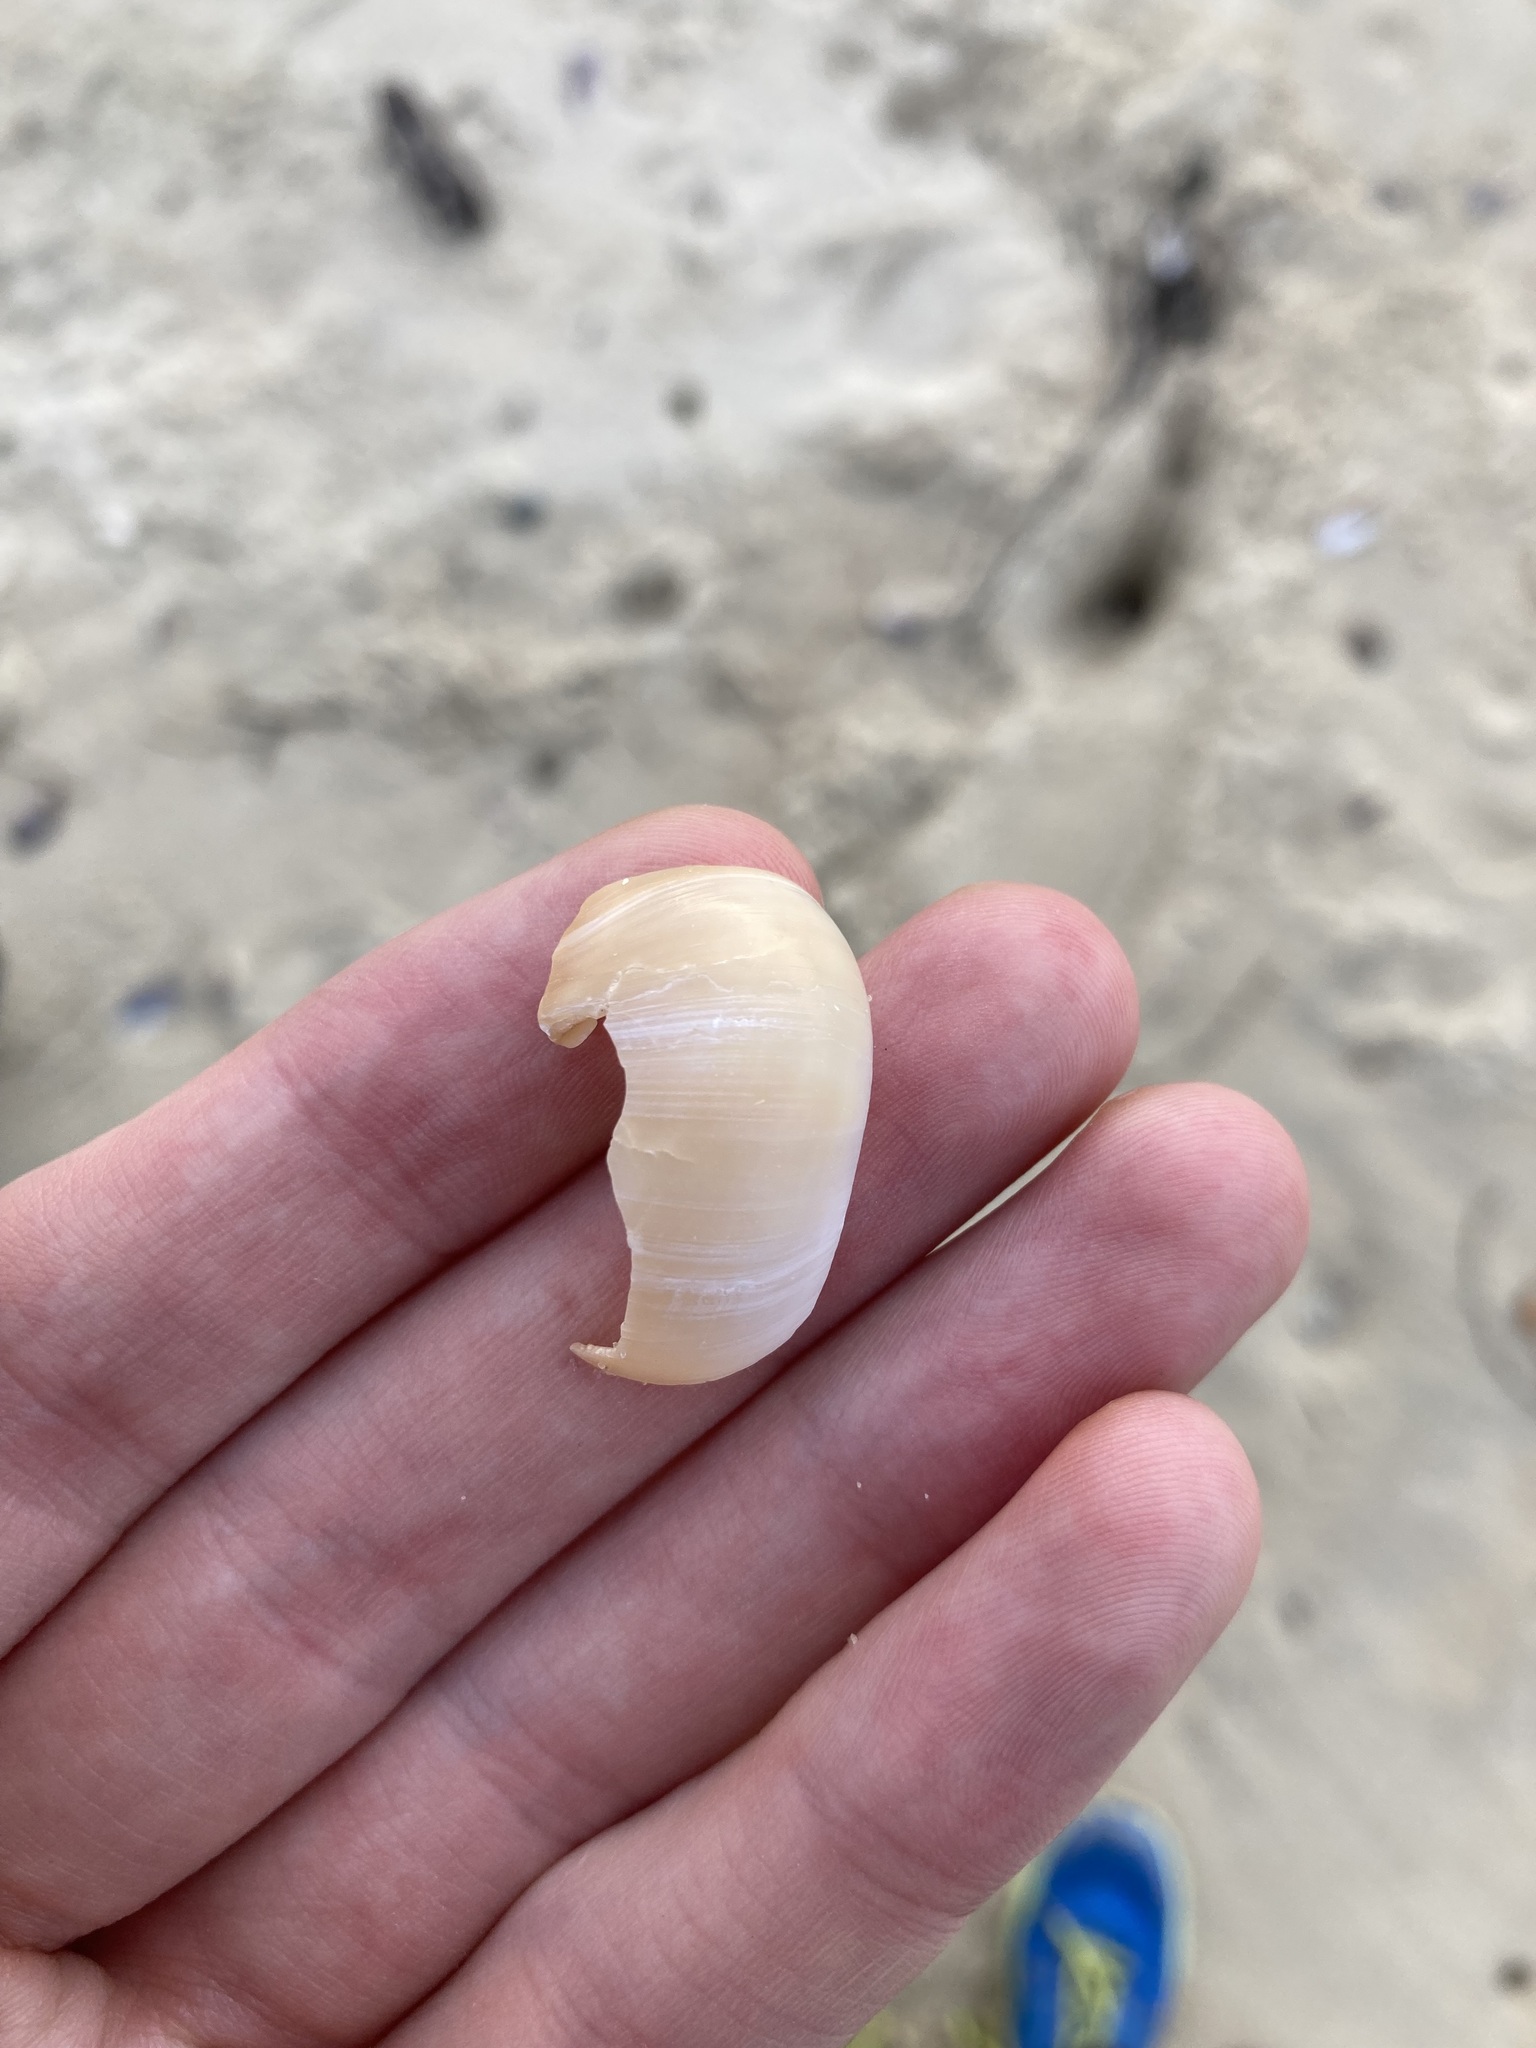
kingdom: Animalia
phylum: Mollusca
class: Gastropoda
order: Littorinimorpha
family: Naticidae
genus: Neverita
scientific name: Neverita didyma
